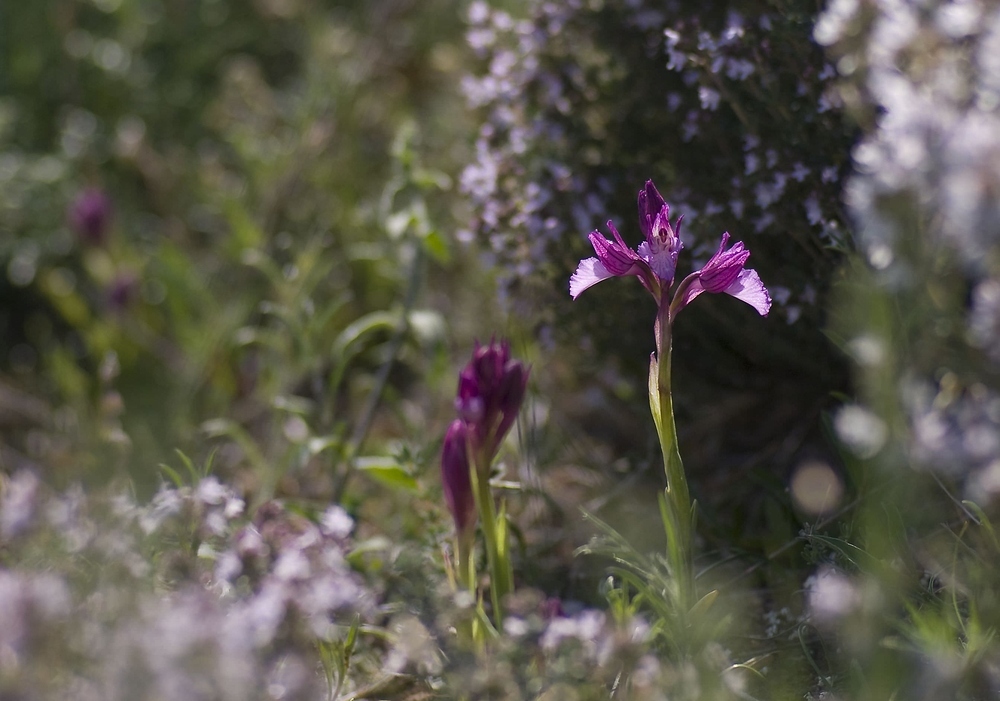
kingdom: Plantae
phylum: Tracheophyta
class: Liliopsida
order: Asparagales
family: Orchidaceae
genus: Anacamptis
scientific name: Anacamptis papilionacea
